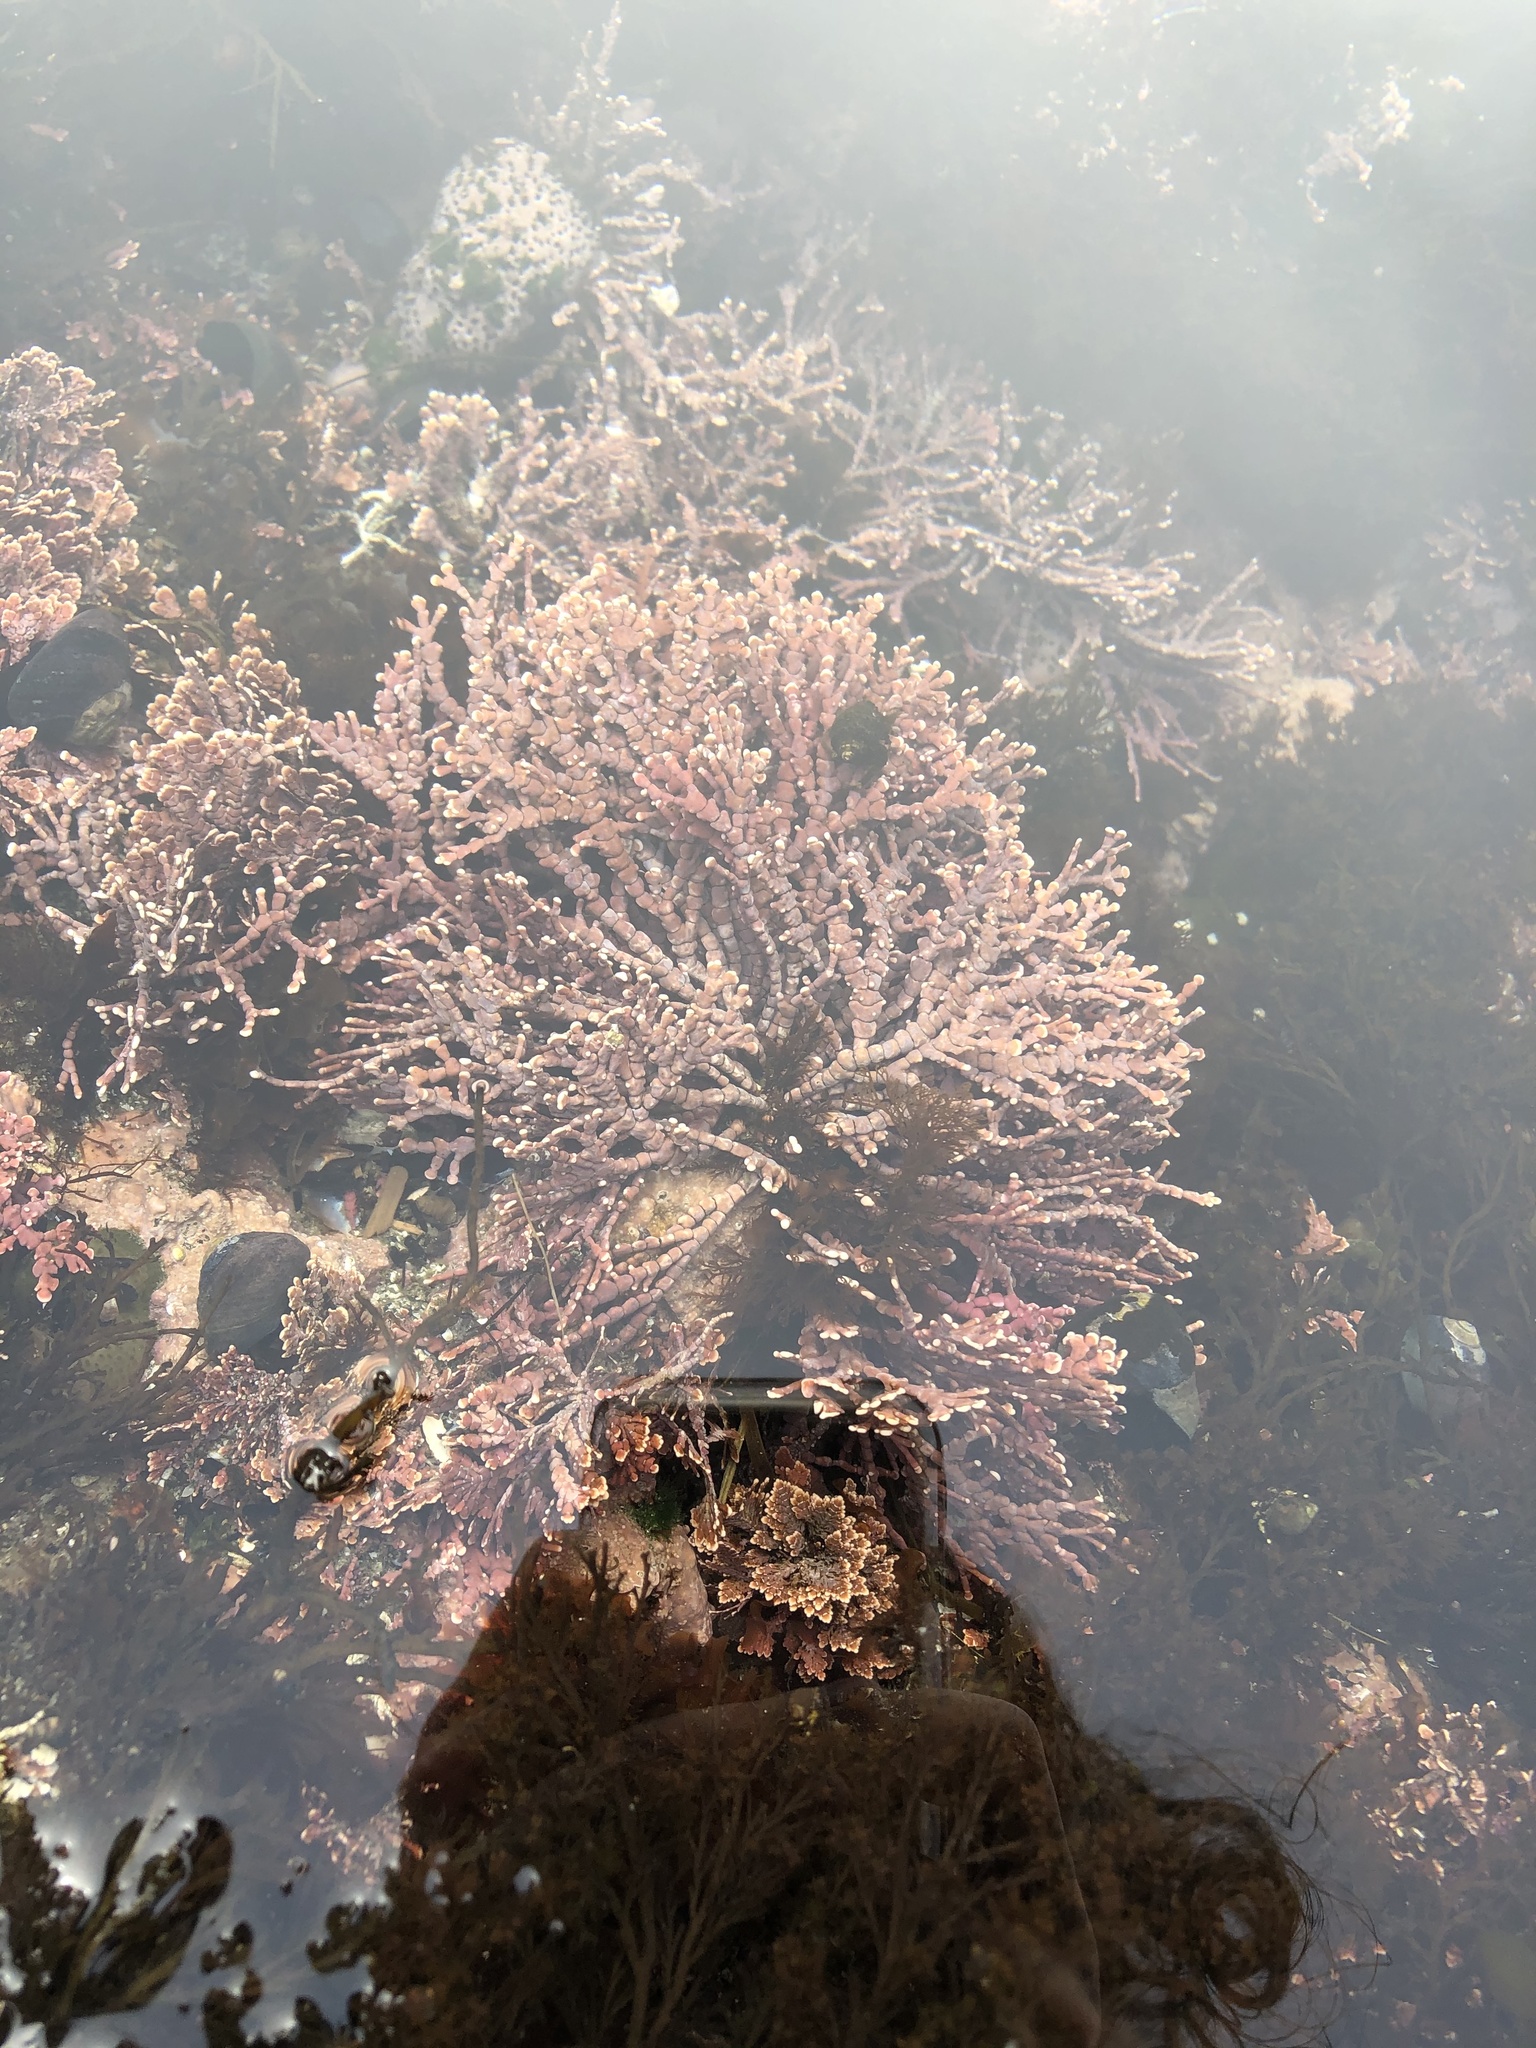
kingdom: Plantae
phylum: Rhodophyta
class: Florideophyceae
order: Corallinales
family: Corallinaceae
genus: Calliarthron
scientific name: Calliarthron tuberculosum
